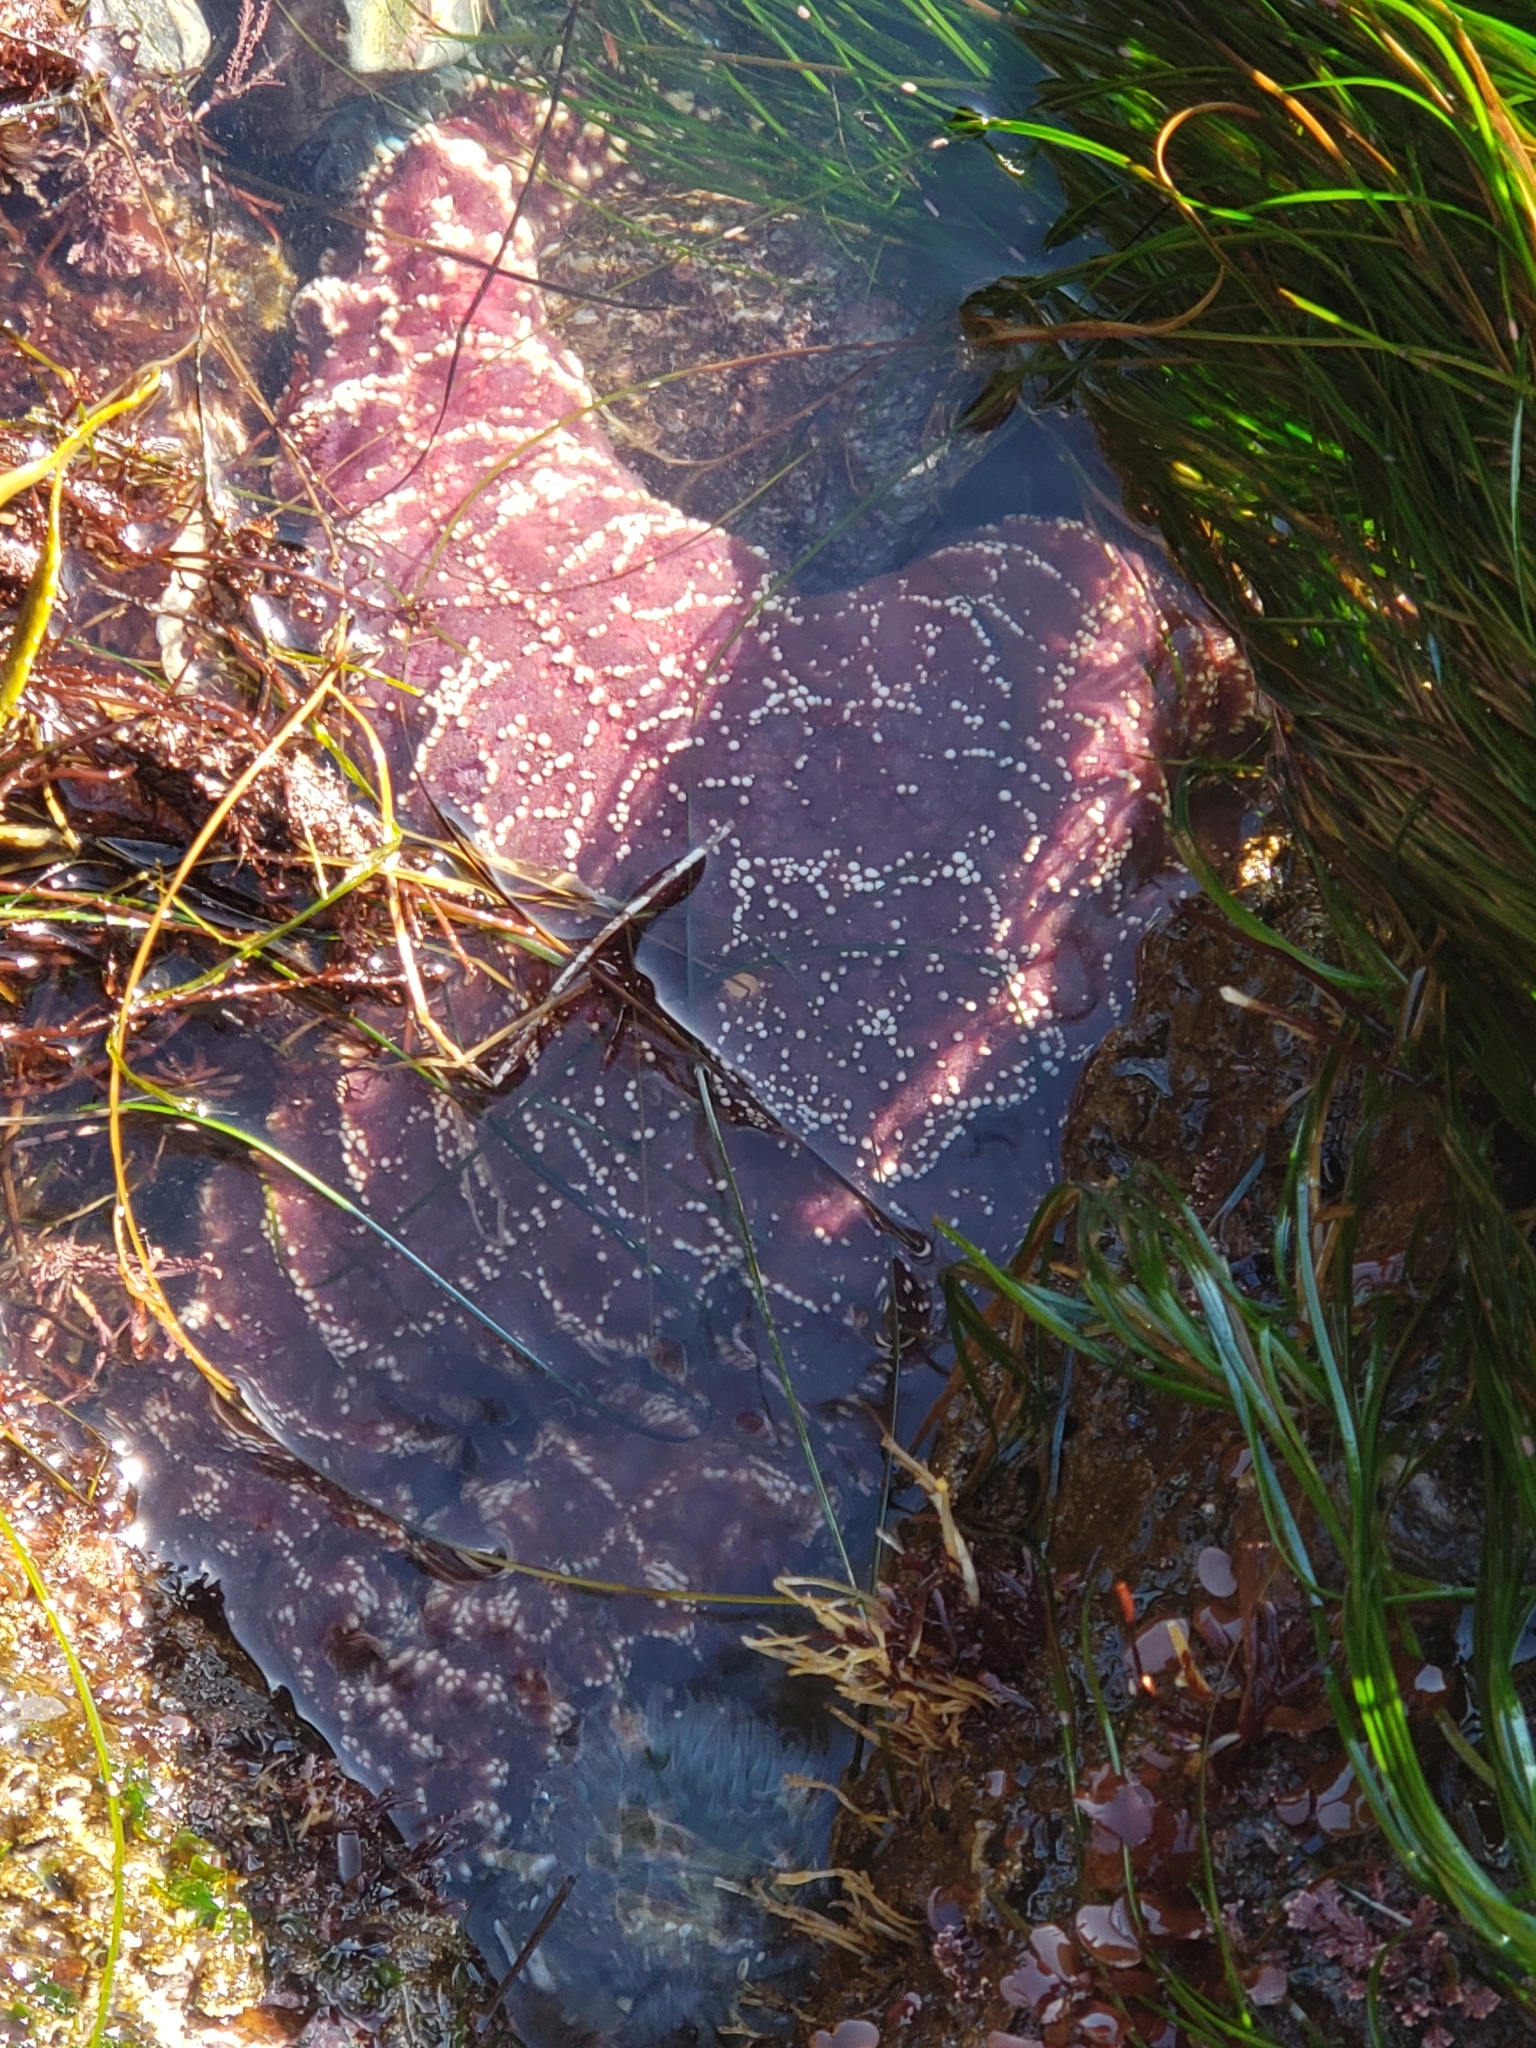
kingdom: Animalia
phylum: Echinodermata
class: Asteroidea
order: Forcipulatida
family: Asteriidae
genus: Pisaster
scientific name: Pisaster ochraceus
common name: Ochre stars
